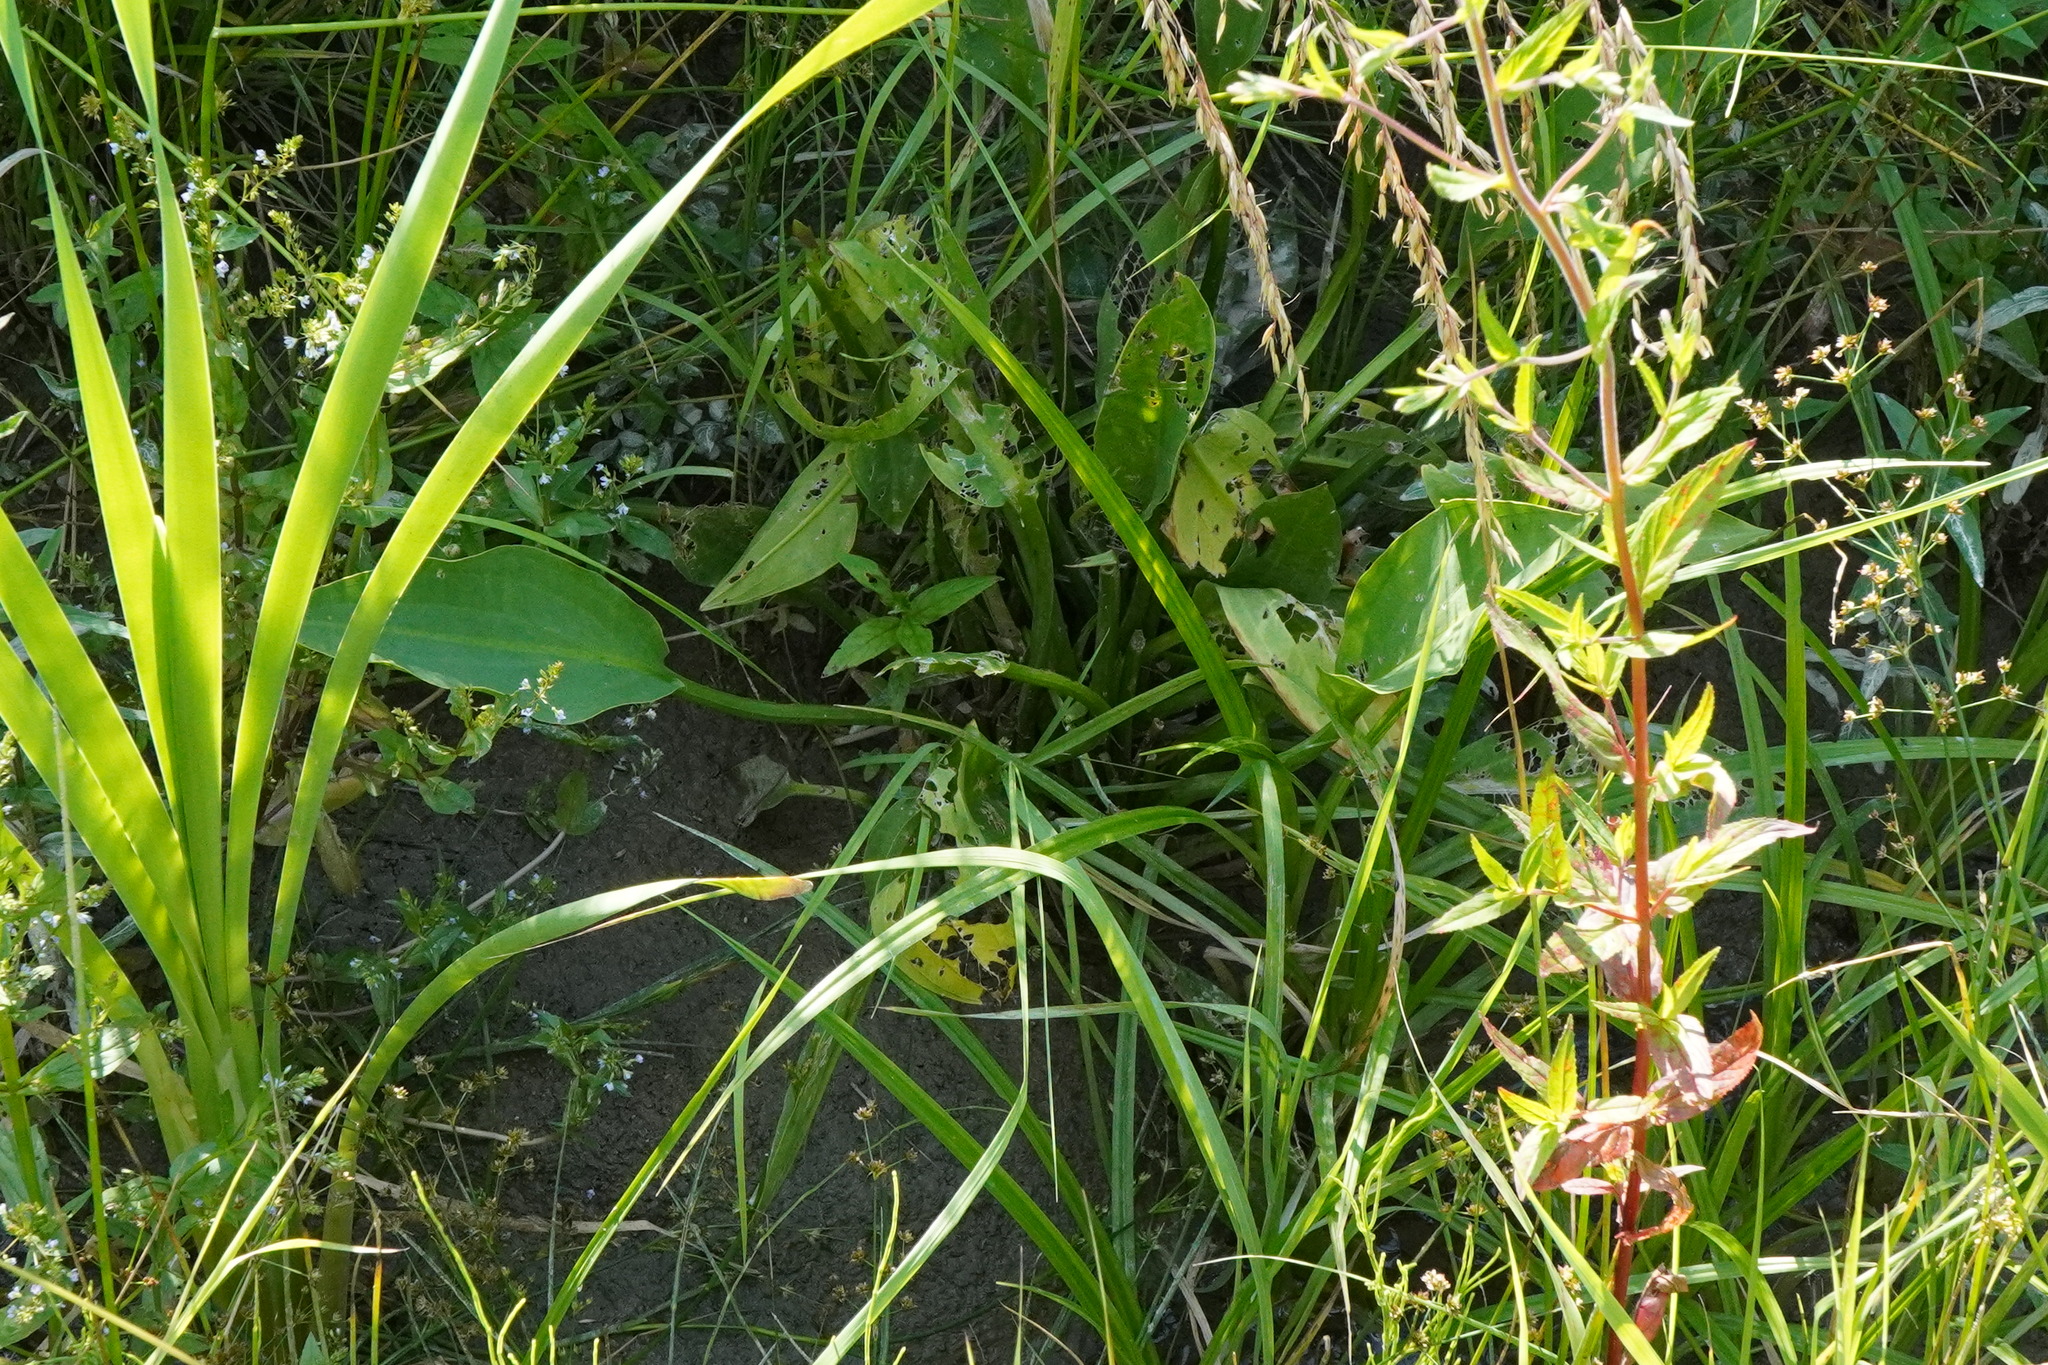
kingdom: Plantae
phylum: Tracheophyta
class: Liliopsida
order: Alismatales
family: Alismataceae
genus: Alisma
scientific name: Alisma plantago-aquatica
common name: Water-plantain
